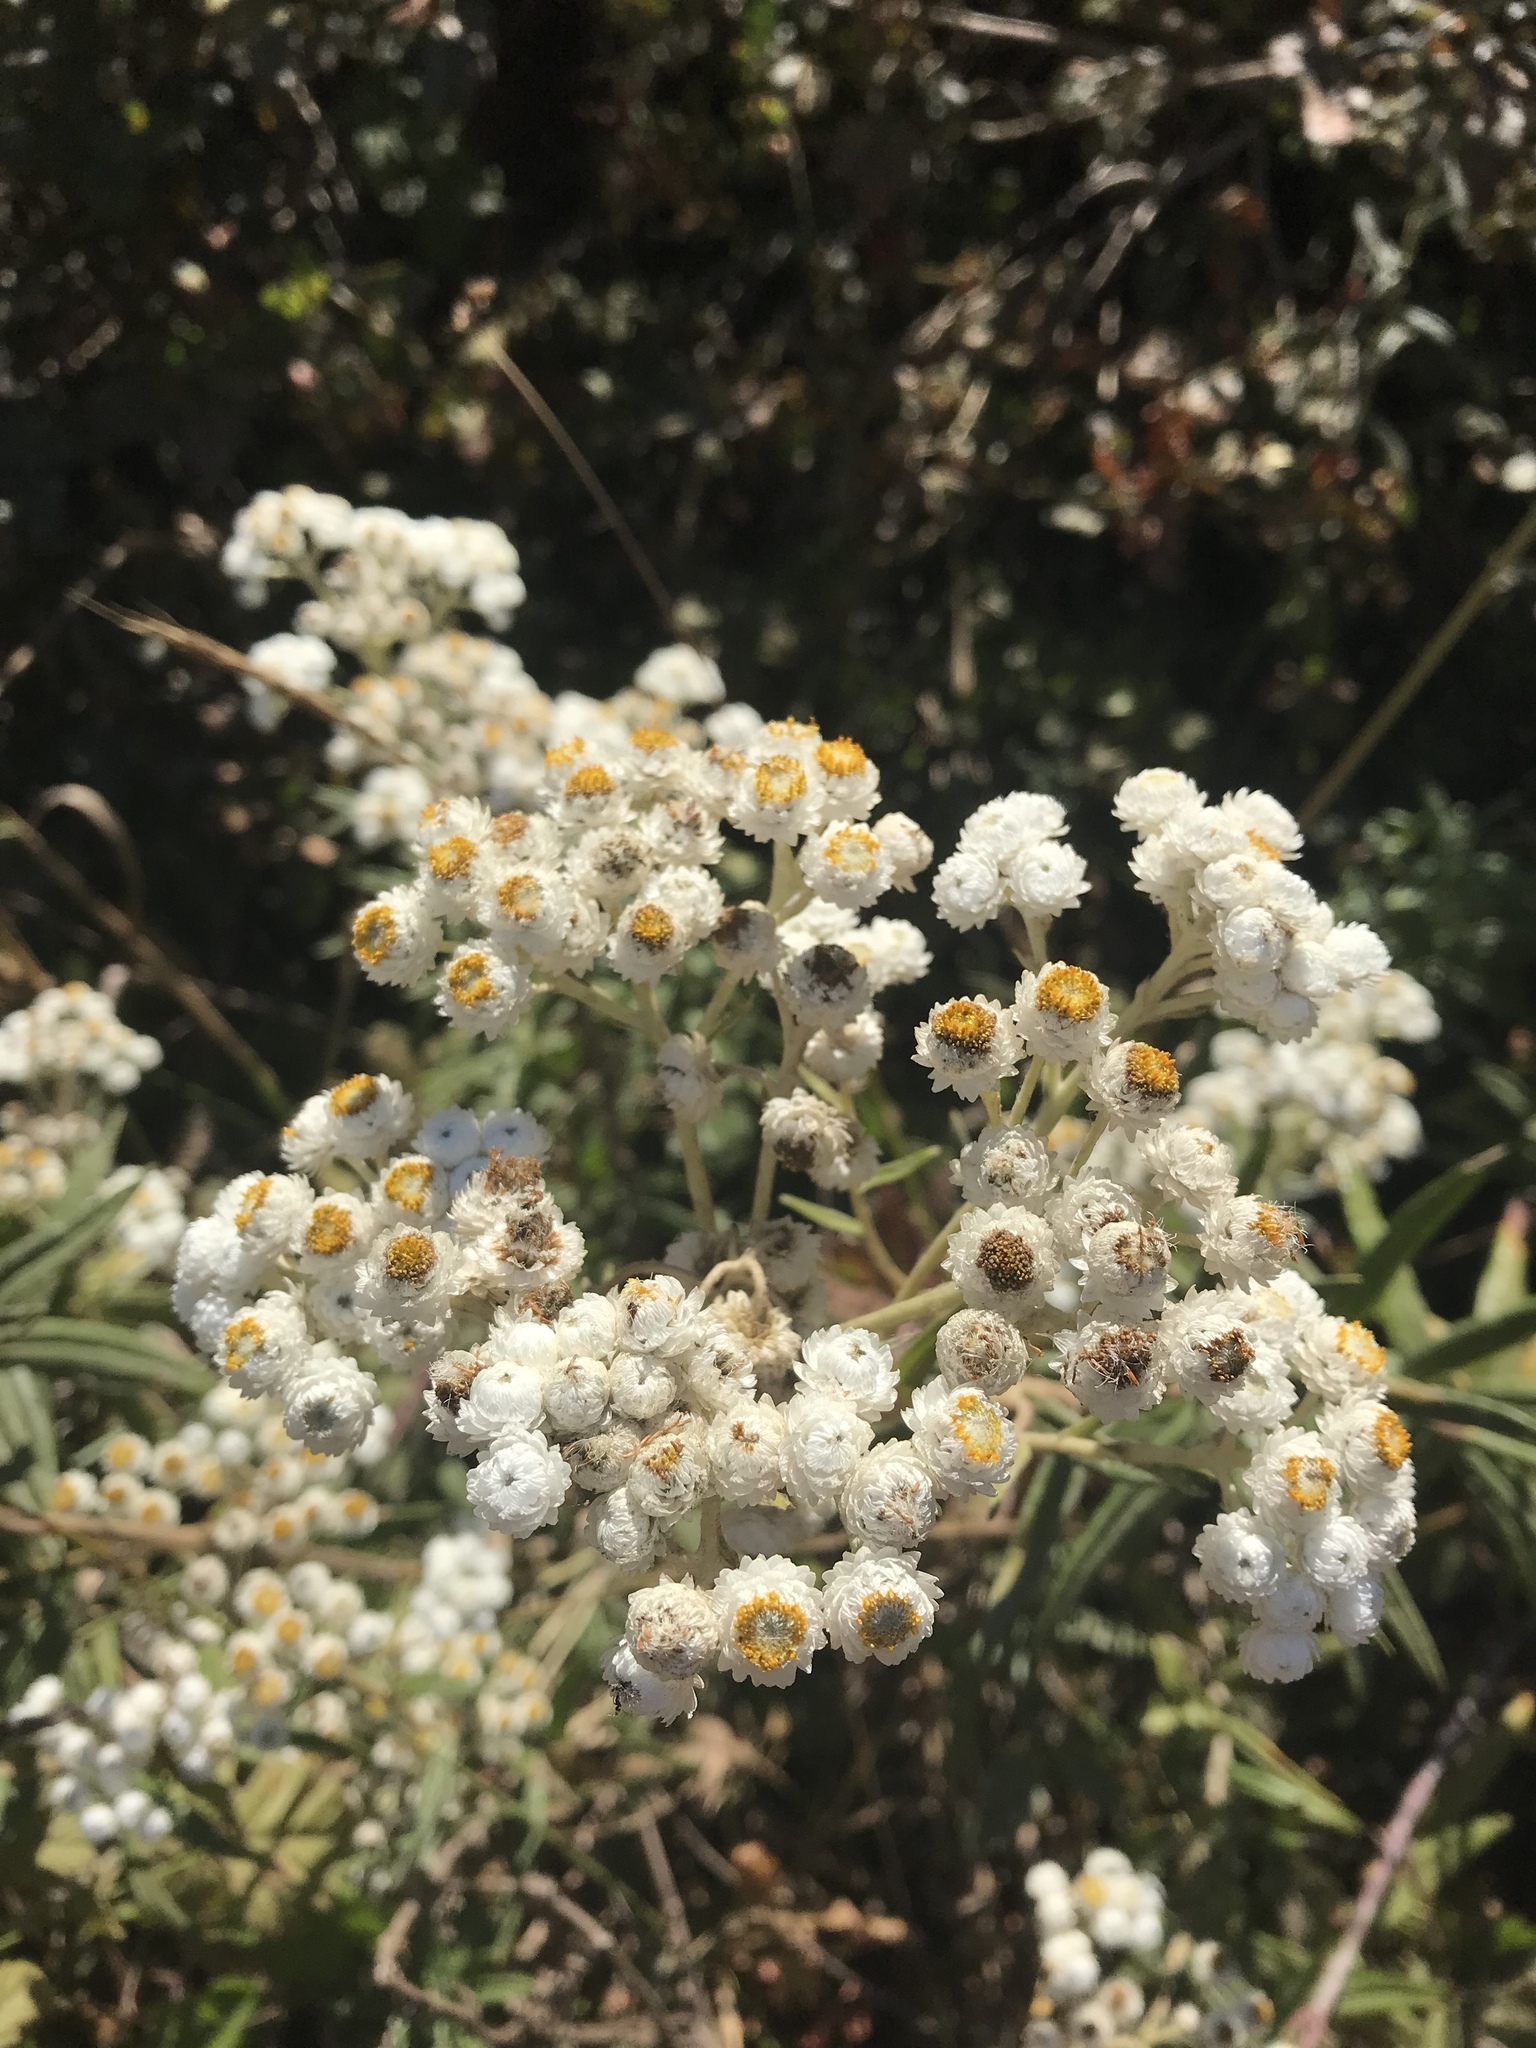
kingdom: Plantae
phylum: Tracheophyta
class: Magnoliopsida
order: Asterales
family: Asteraceae
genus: Anaphalis
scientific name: Anaphalis margaritacea
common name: Pearly everlasting
